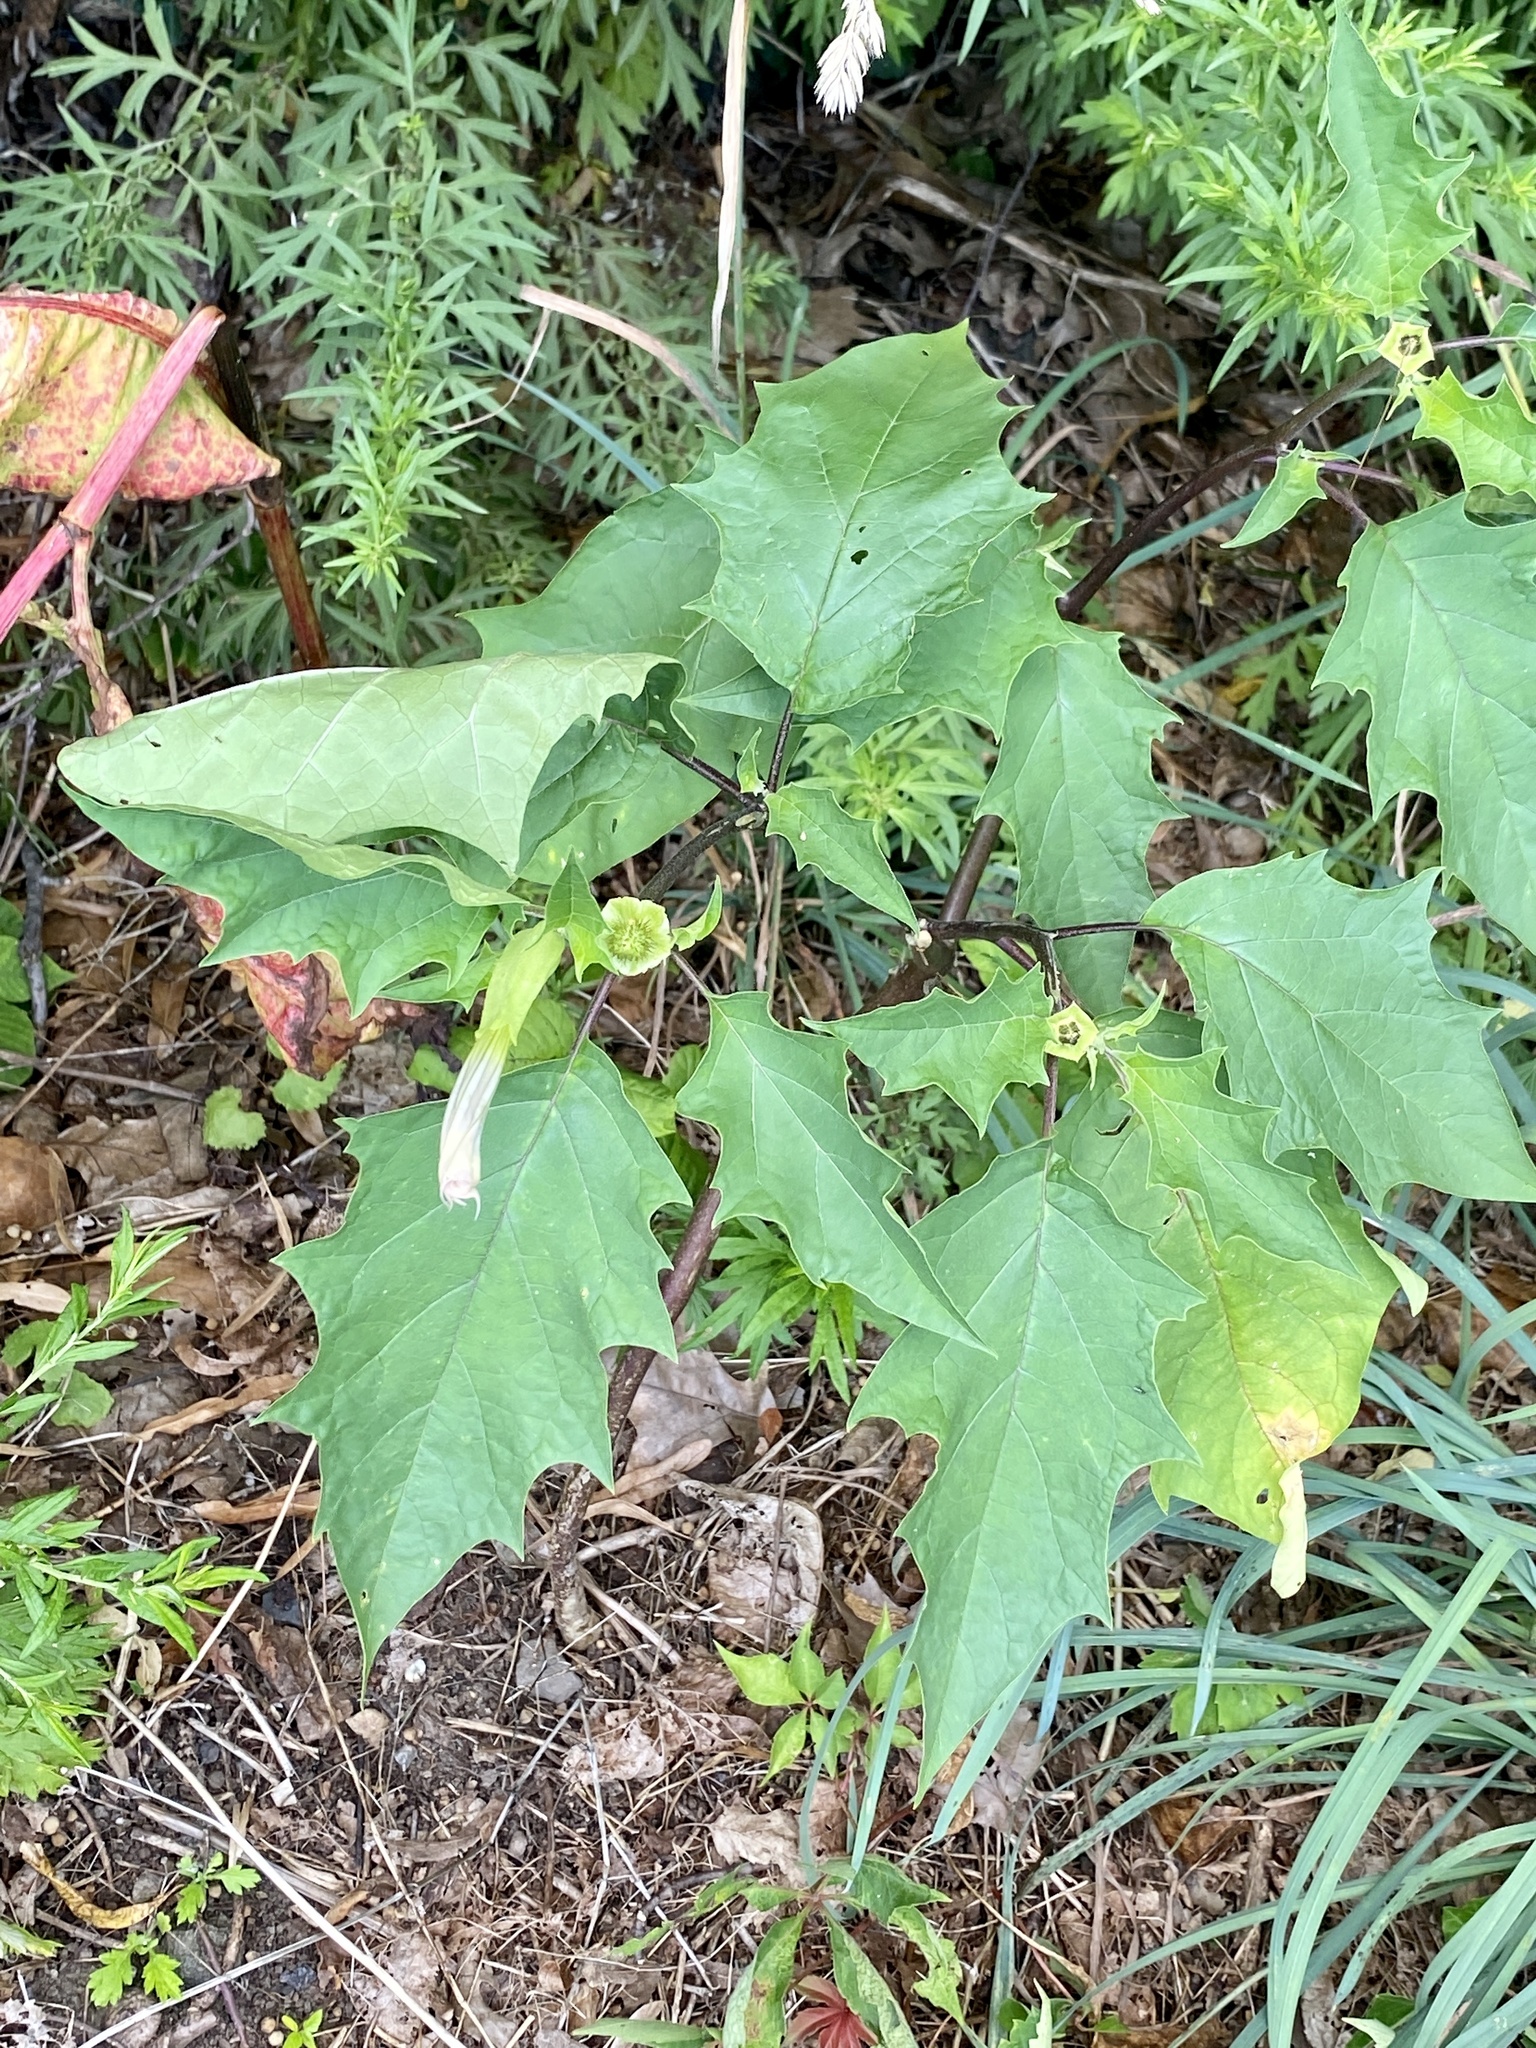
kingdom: Plantae
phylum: Tracheophyta
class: Magnoliopsida
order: Solanales
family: Solanaceae
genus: Datura
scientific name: Datura stramonium
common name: Thorn-apple
